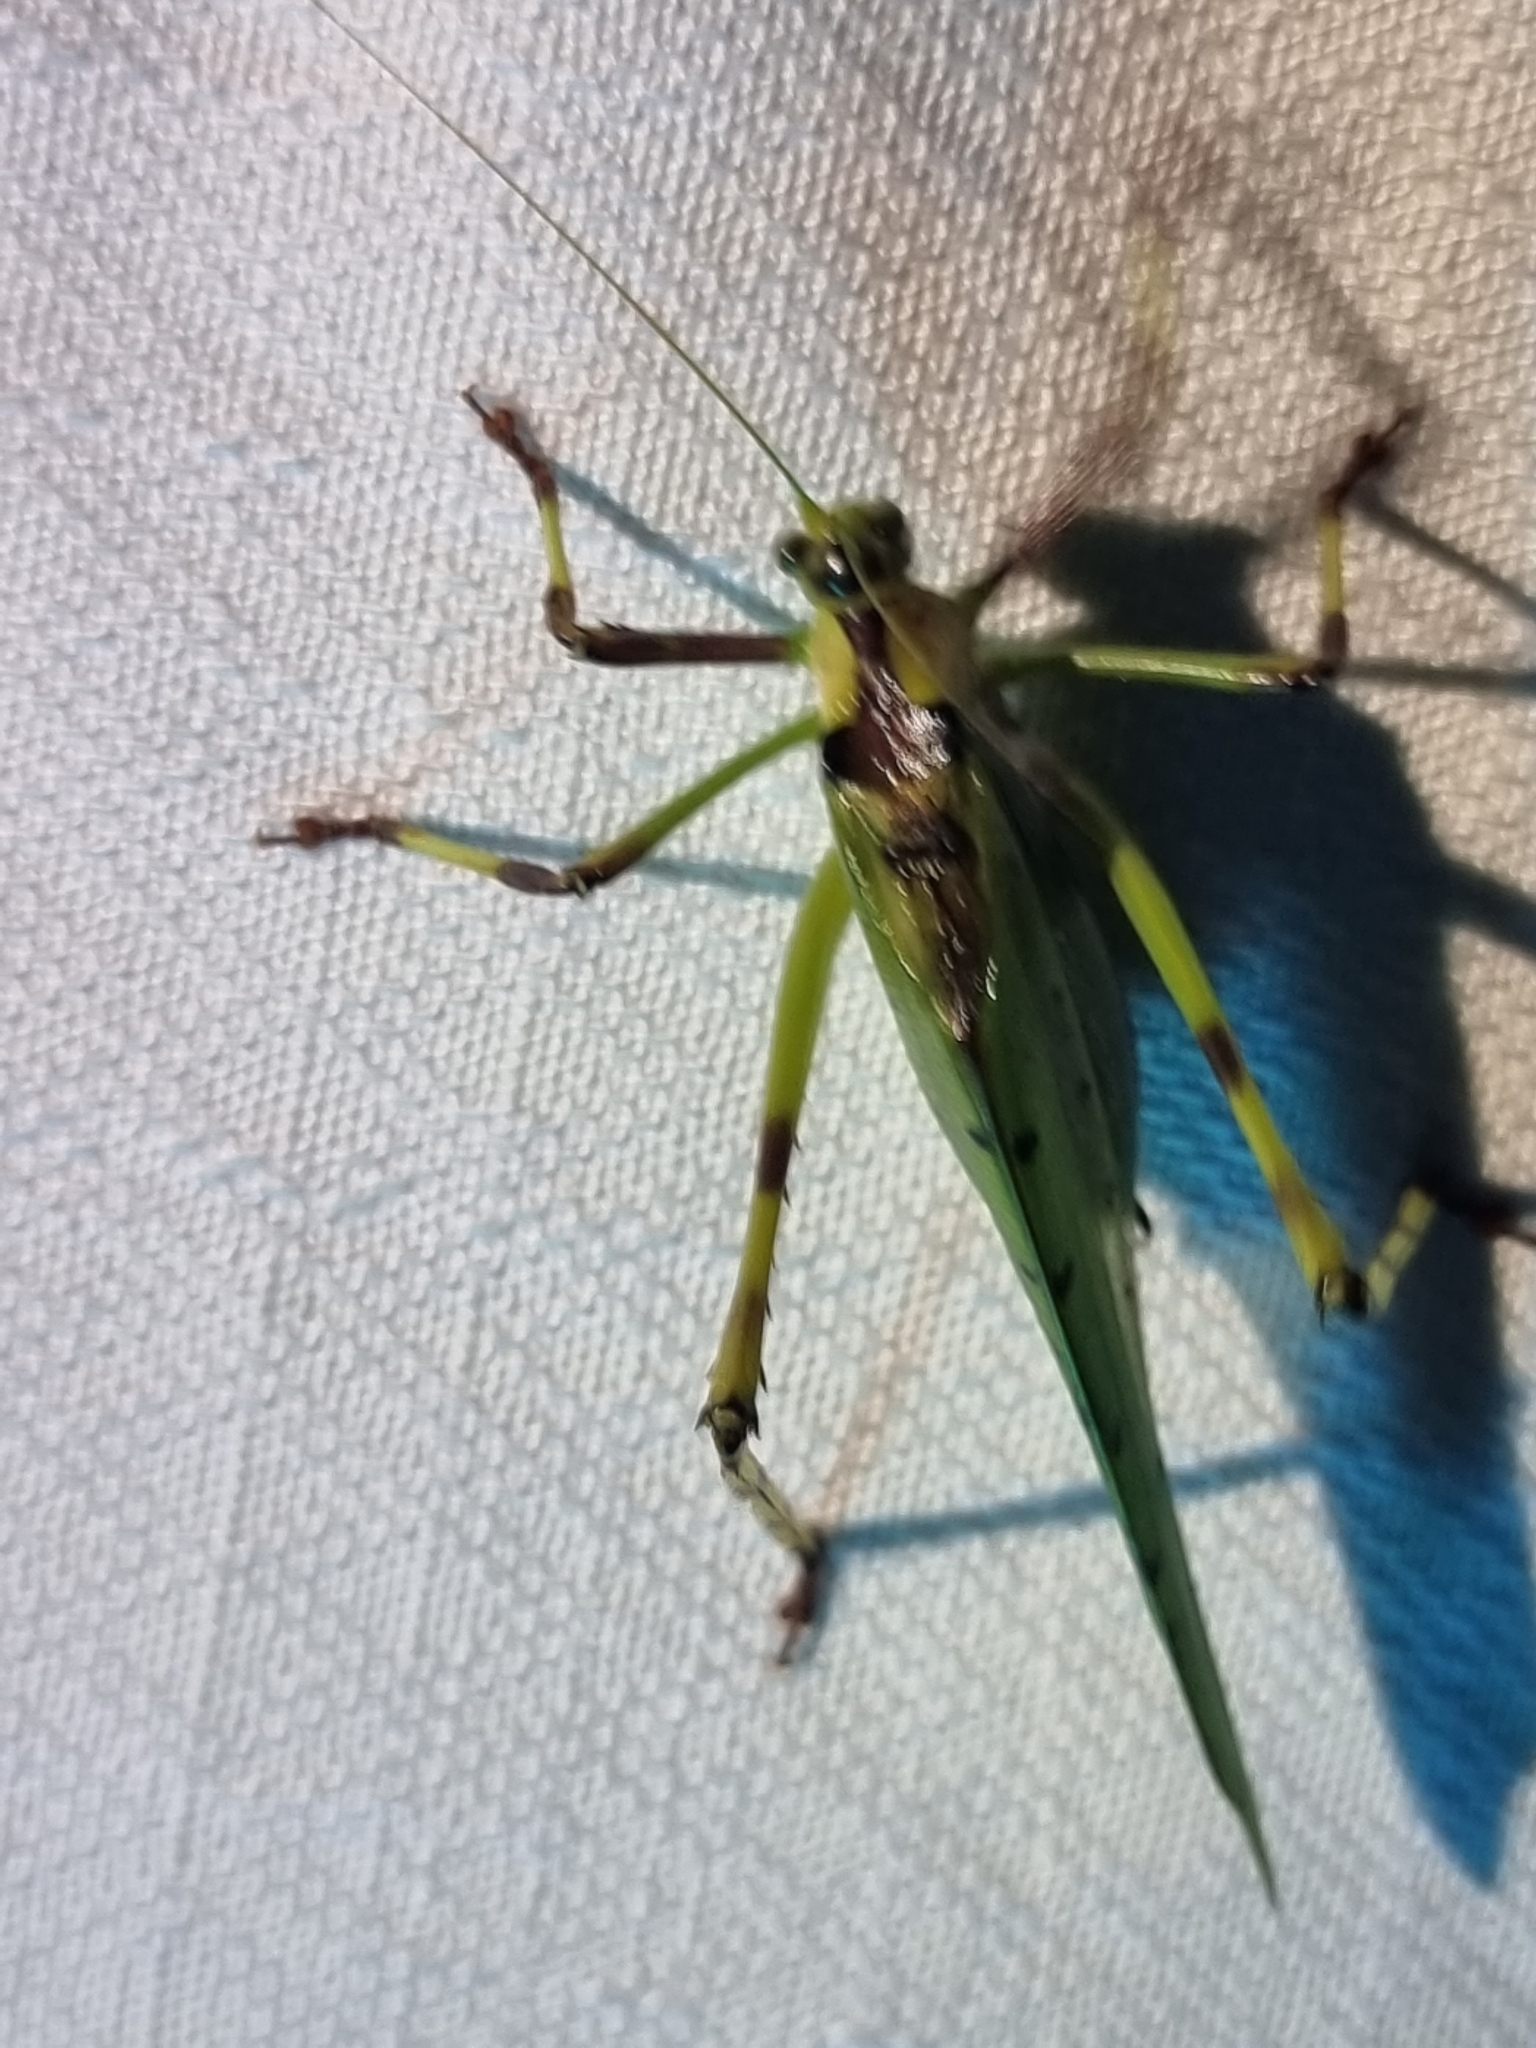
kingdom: Animalia
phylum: Arthropoda
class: Insecta
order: Orthoptera
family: Tettigoniidae
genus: Ephippitytha
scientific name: Ephippitytha trigintiduoguttata
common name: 32-spotted katydid
